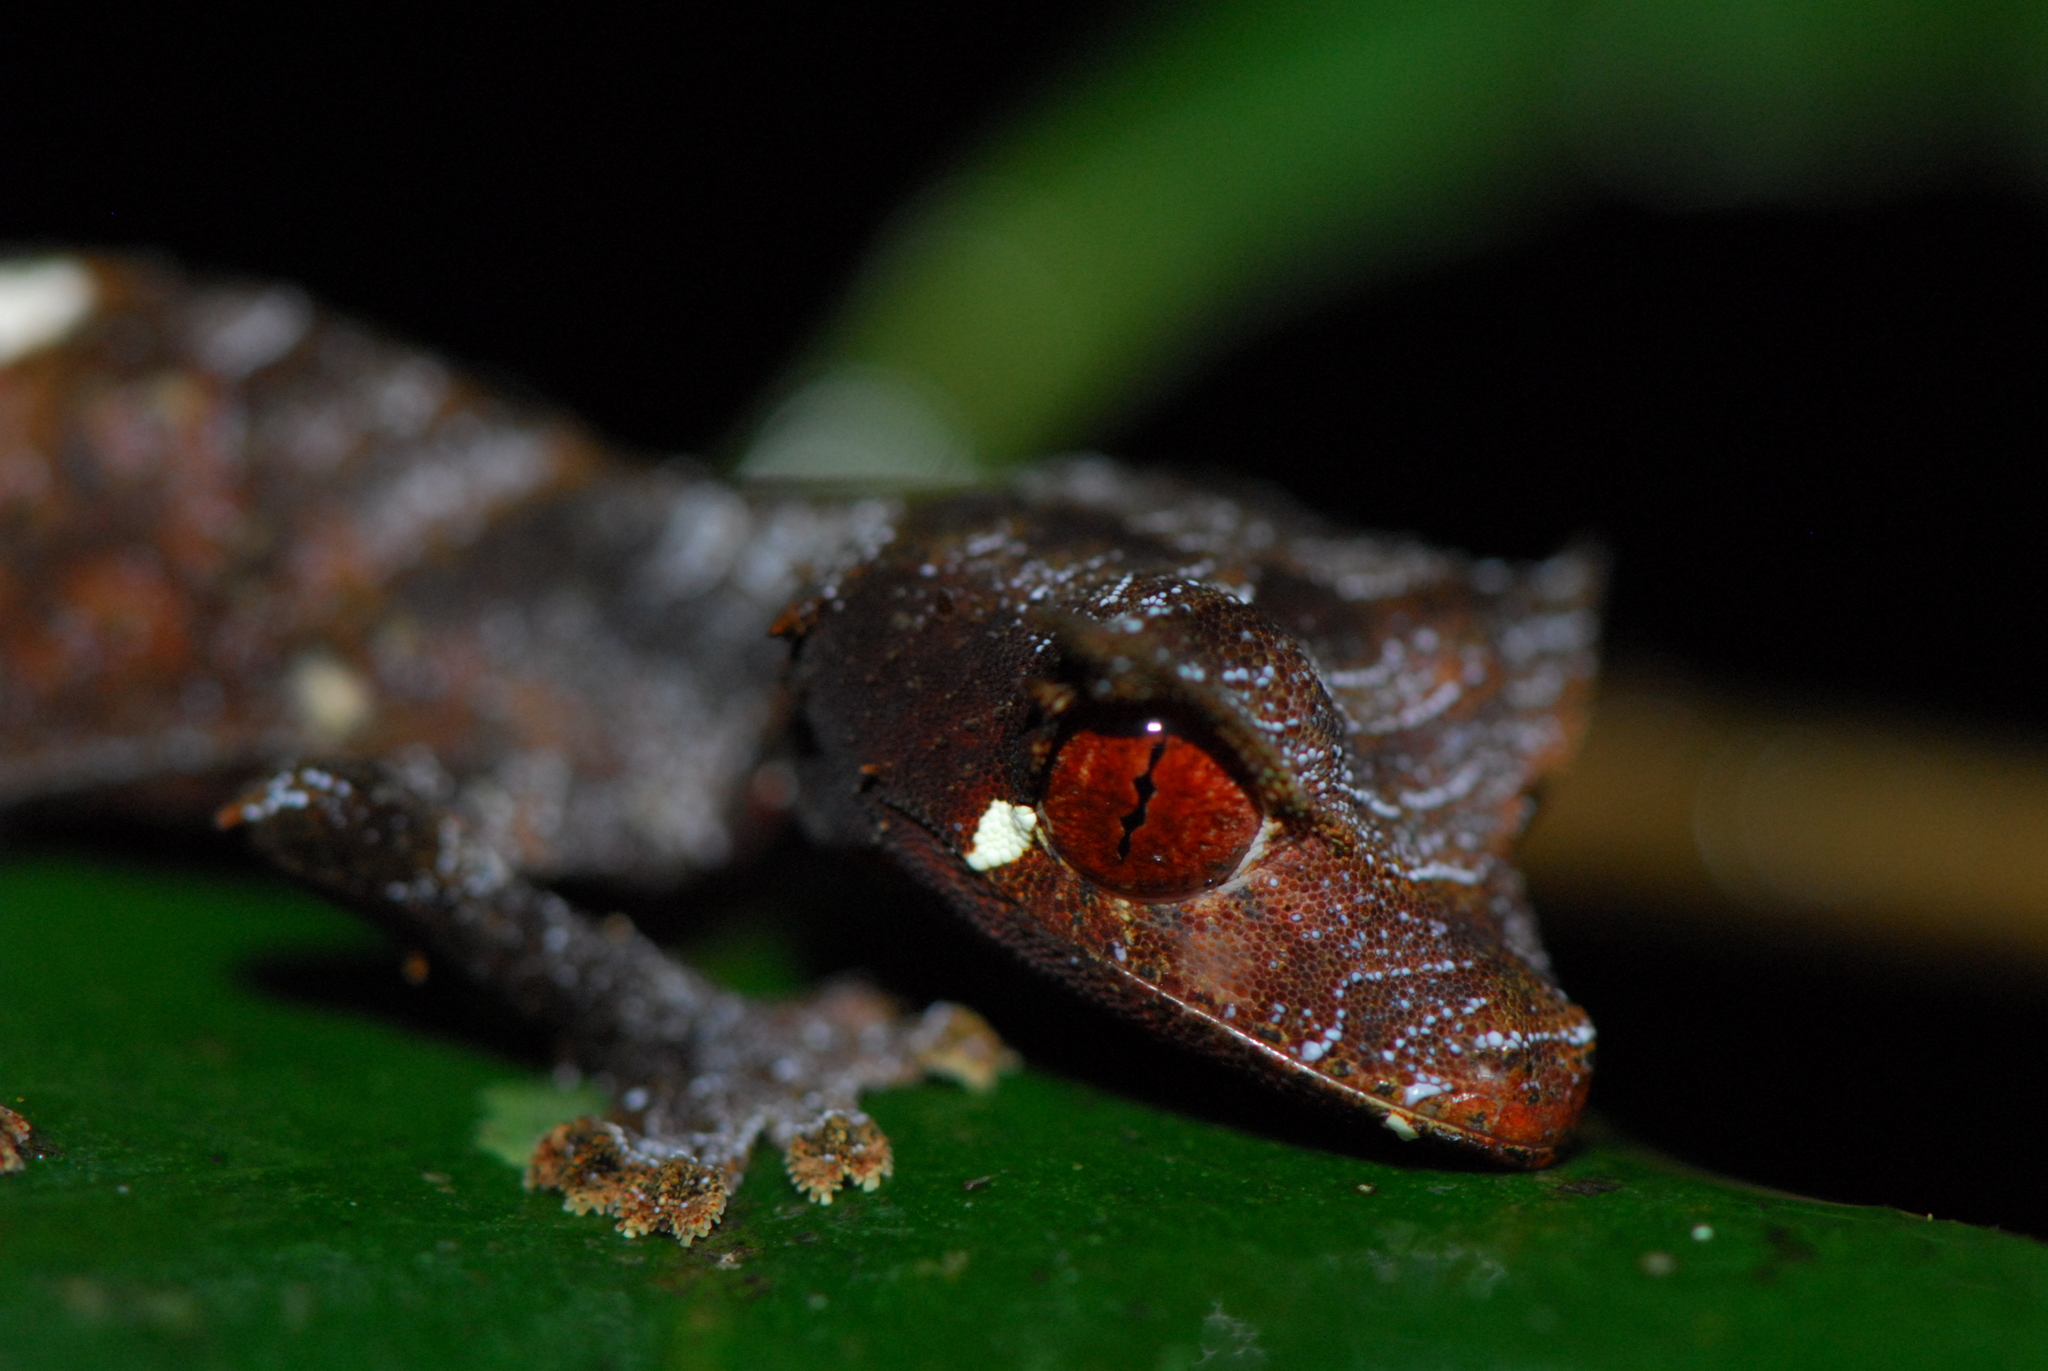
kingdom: Animalia
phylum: Chordata
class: Squamata
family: Gekkonidae
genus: Uroplatus
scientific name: Uroplatus phantasticus
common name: Phantastic leaf-tailed gecko
